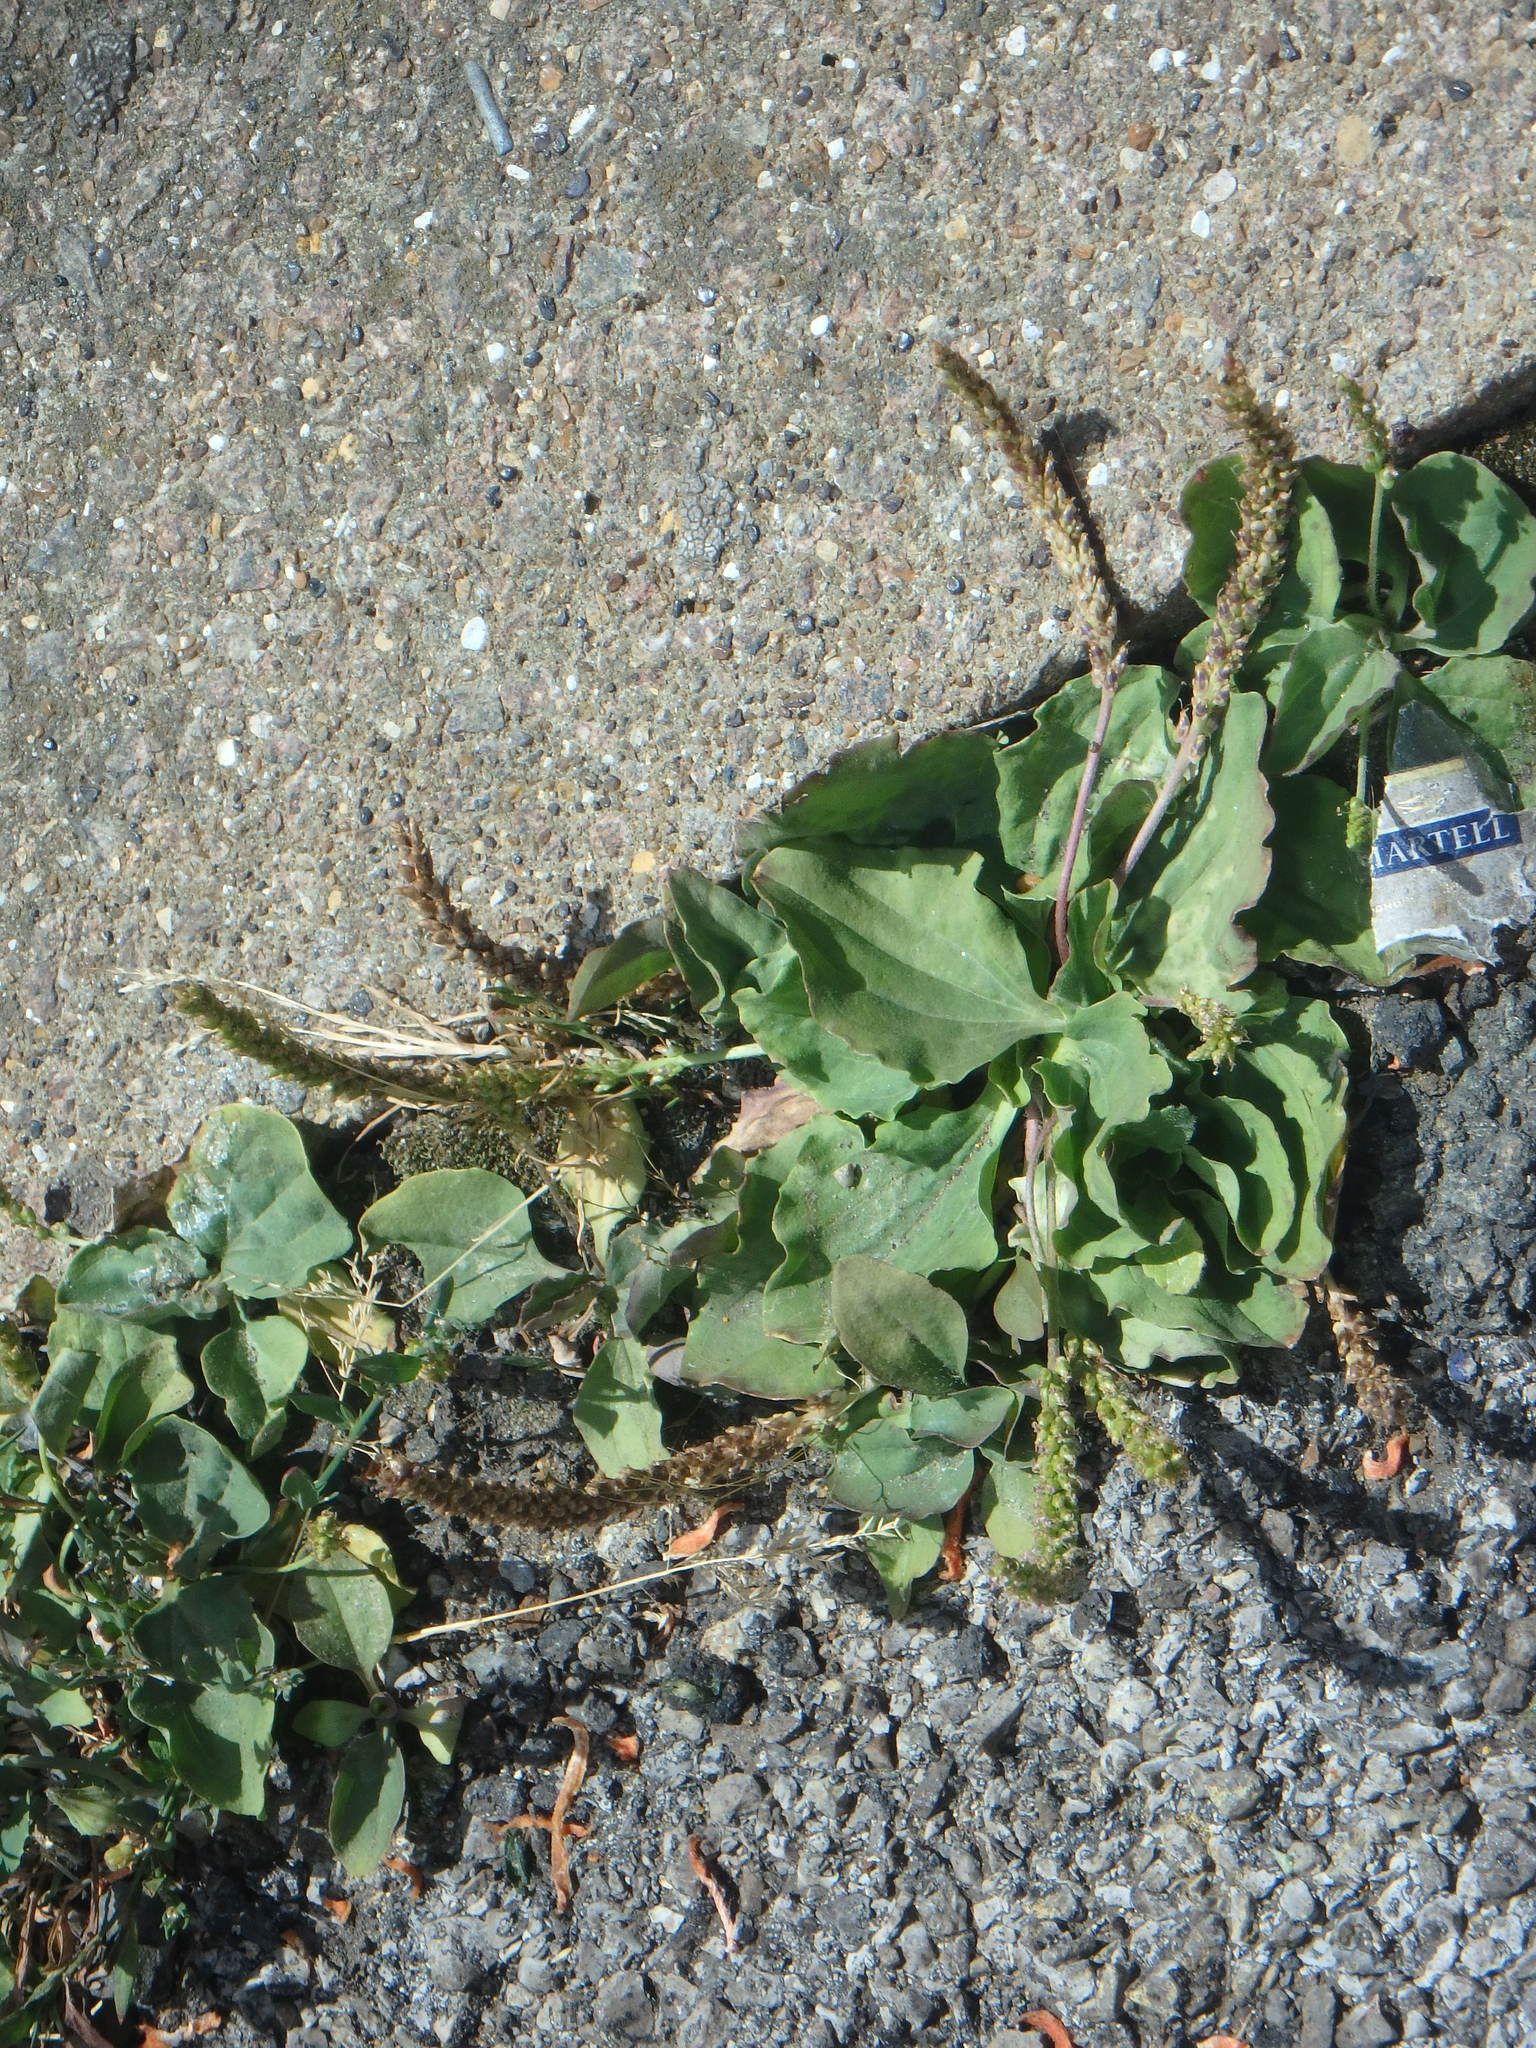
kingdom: Plantae
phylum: Tracheophyta
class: Magnoliopsida
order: Lamiales
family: Plantaginaceae
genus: Plantago
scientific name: Plantago major
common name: Common plantain
